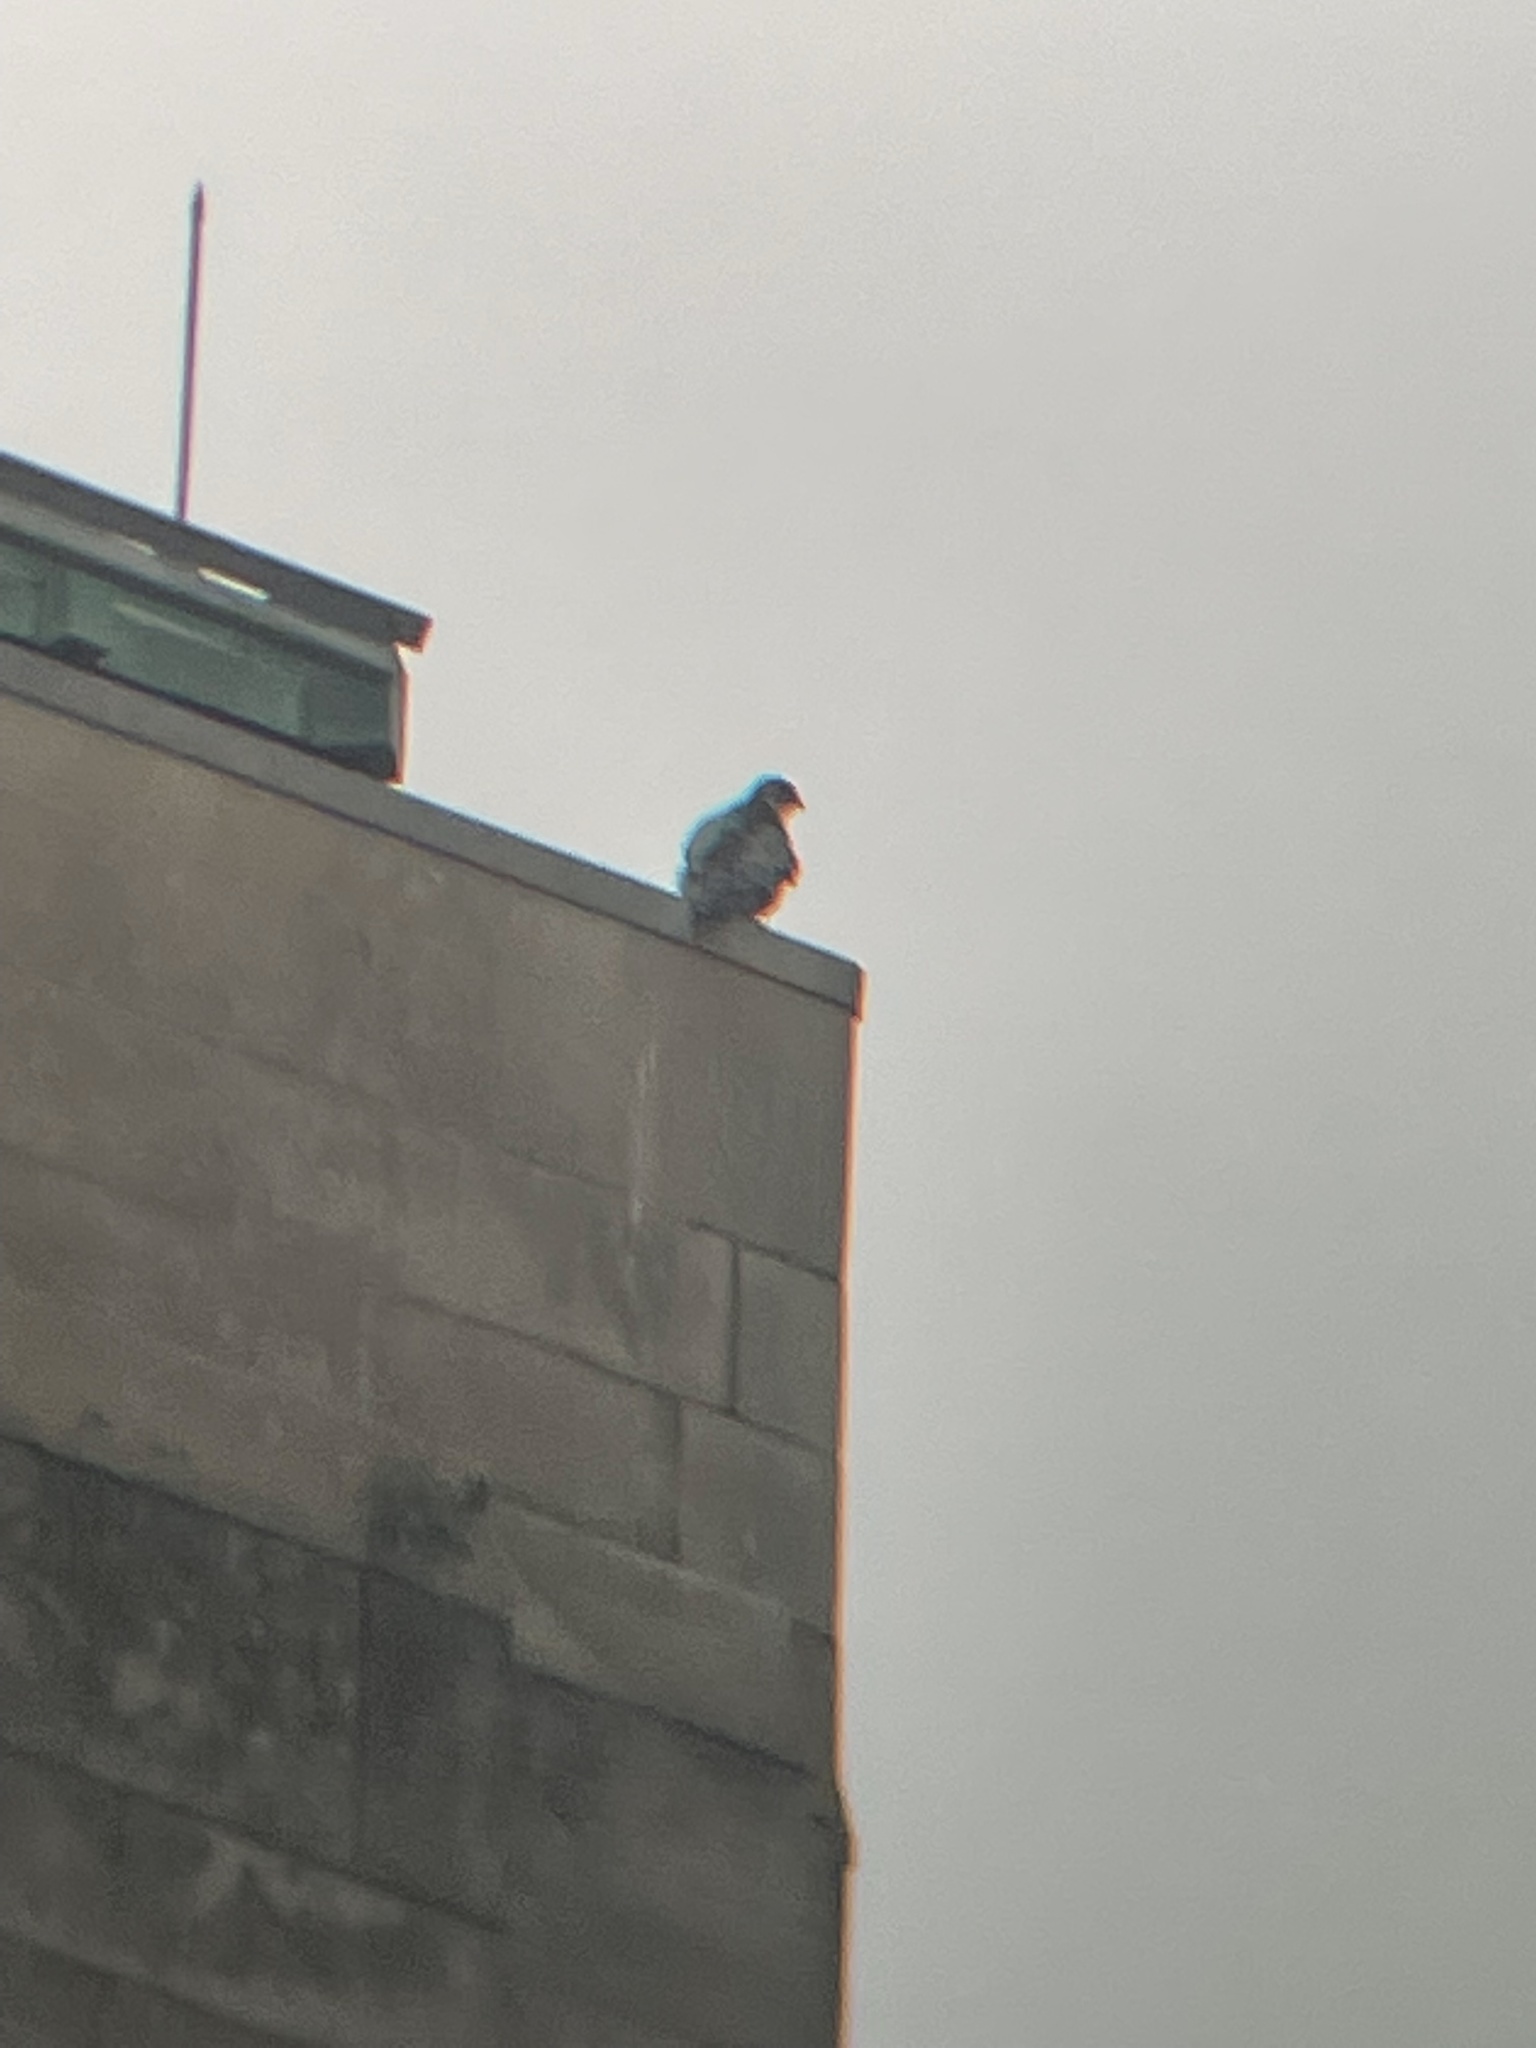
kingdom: Animalia
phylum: Chordata
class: Aves
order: Falconiformes
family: Falconidae
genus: Falco
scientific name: Falco peregrinus
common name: Peregrine falcon
